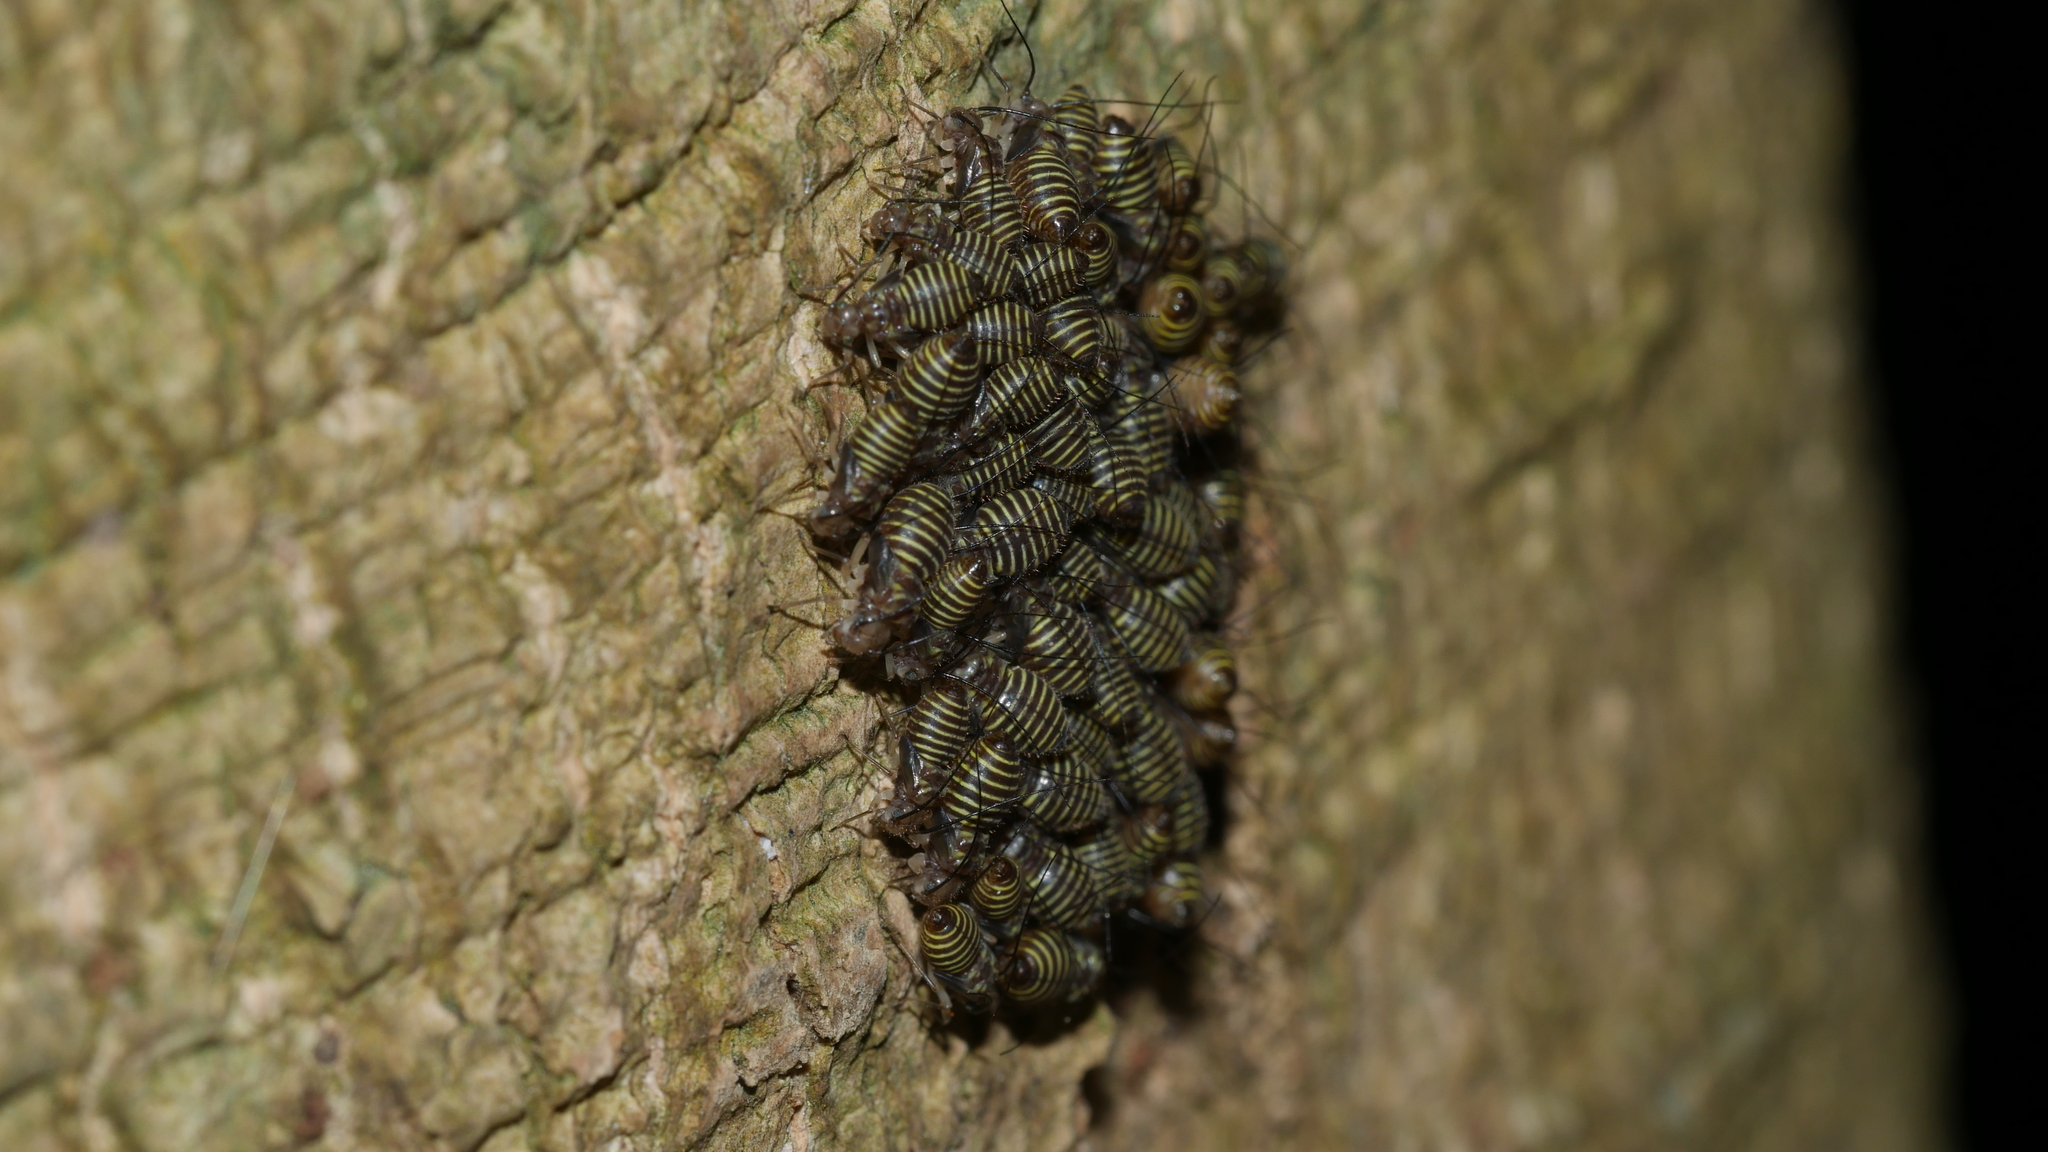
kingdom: Animalia
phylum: Arthropoda
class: Insecta
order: Psocodea
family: Psocidae
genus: Cerastipsocus
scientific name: Cerastipsocus venosus
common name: Tree cattle
